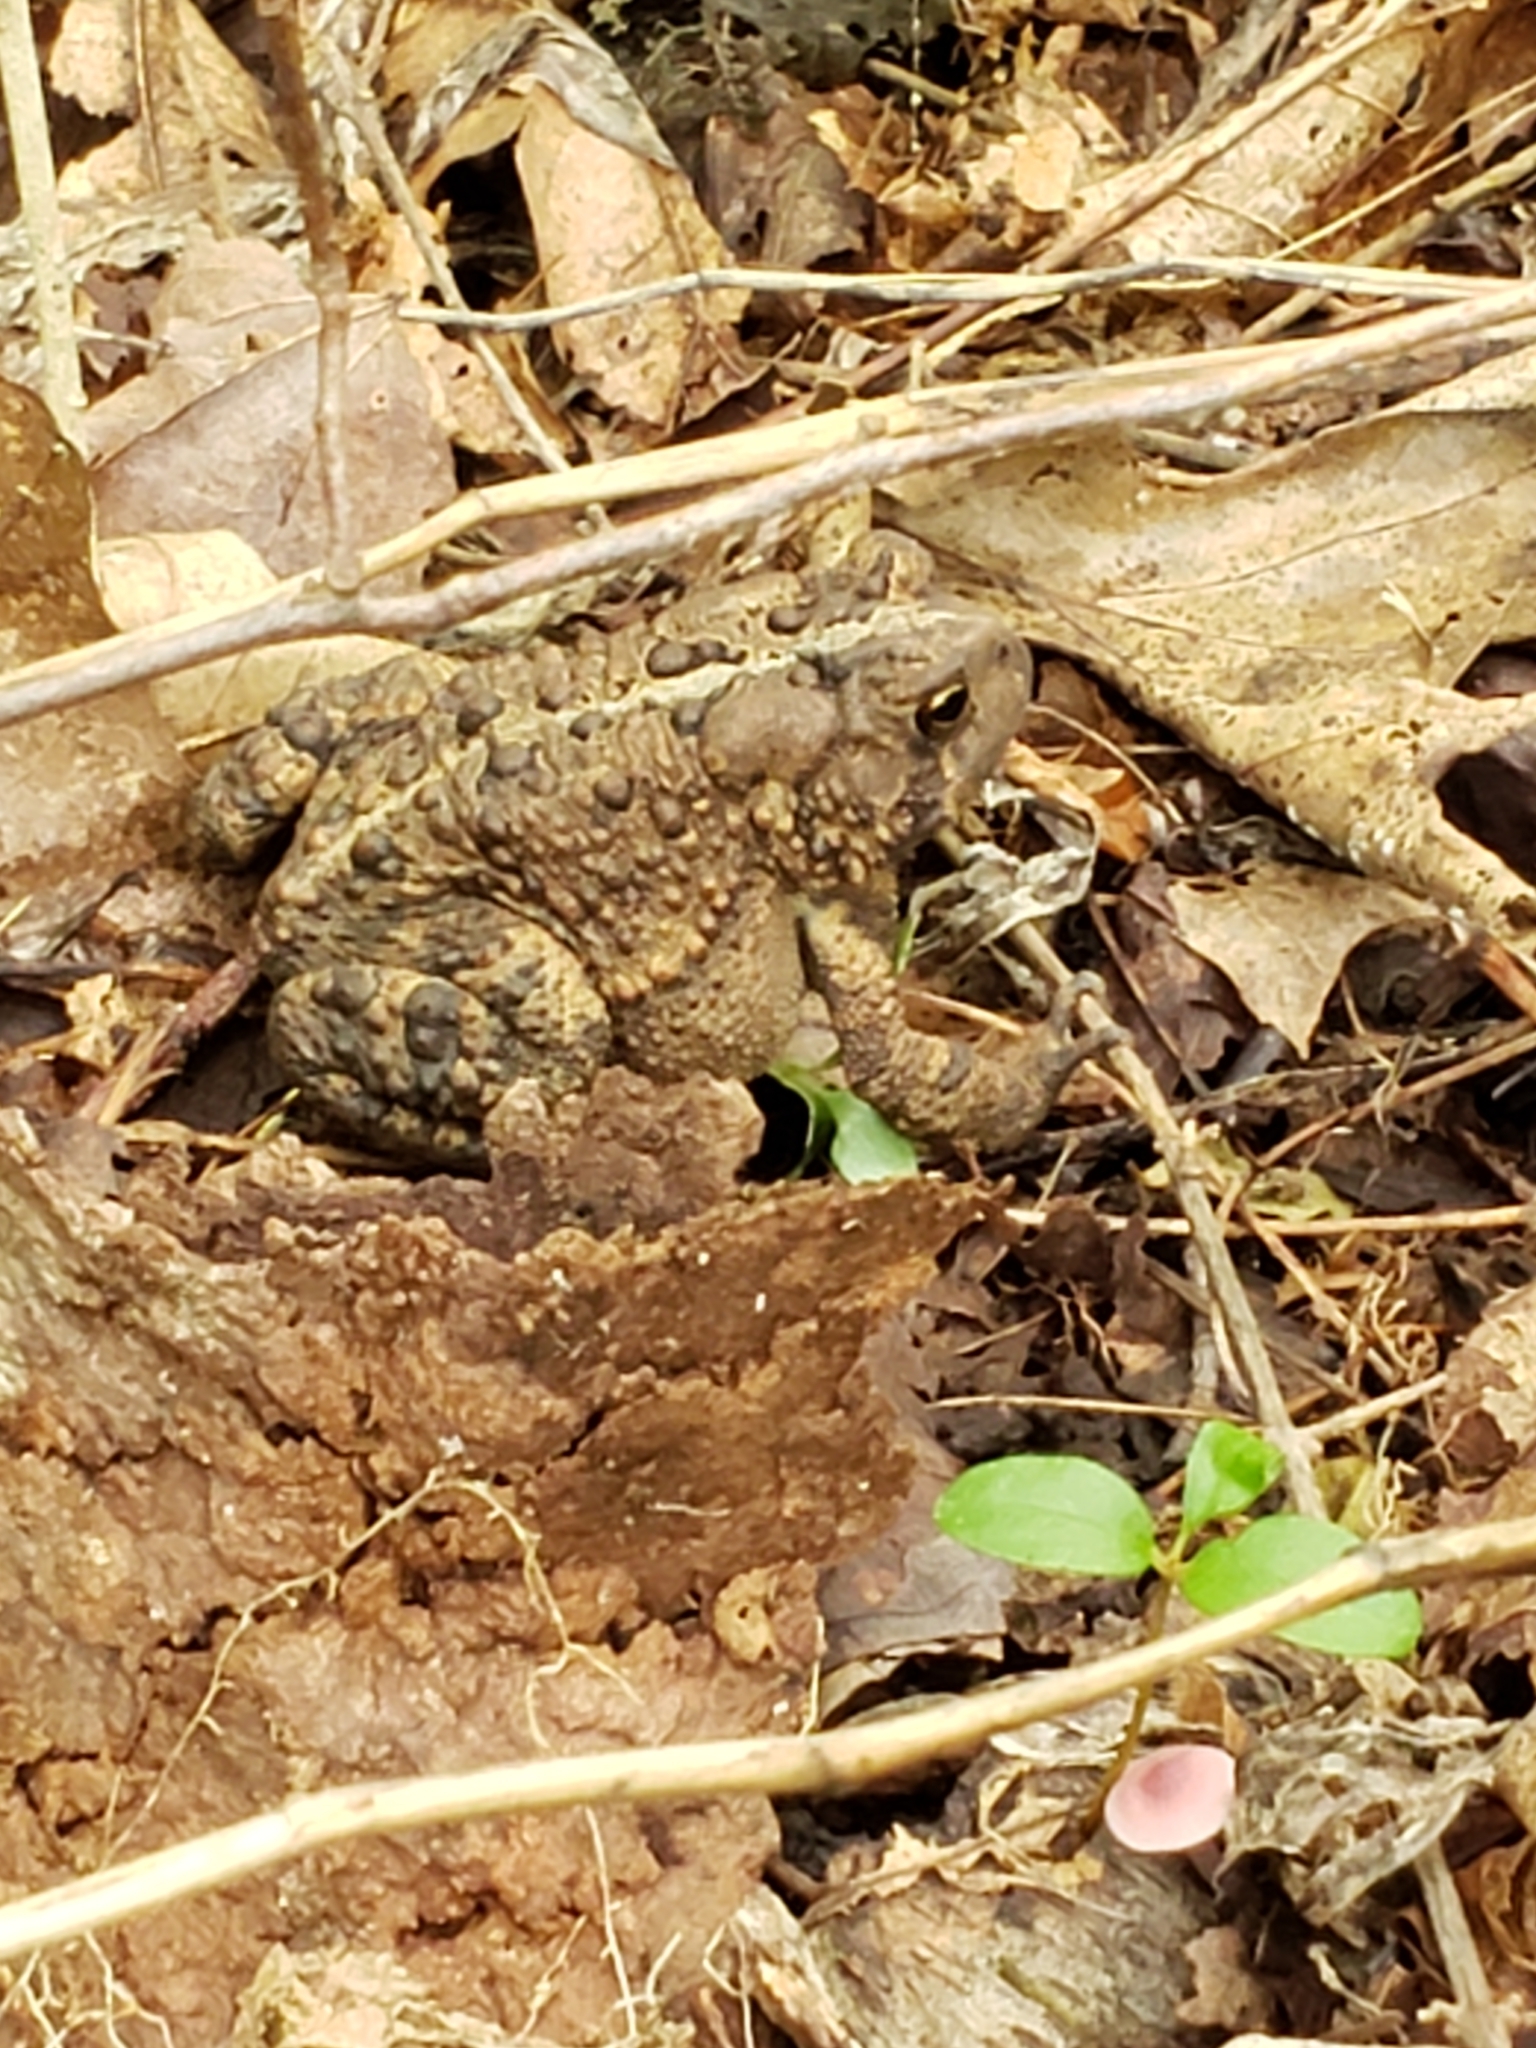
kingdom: Animalia
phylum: Chordata
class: Amphibia
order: Anura
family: Bufonidae
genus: Anaxyrus
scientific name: Anaxyrus americanus
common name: American toad
